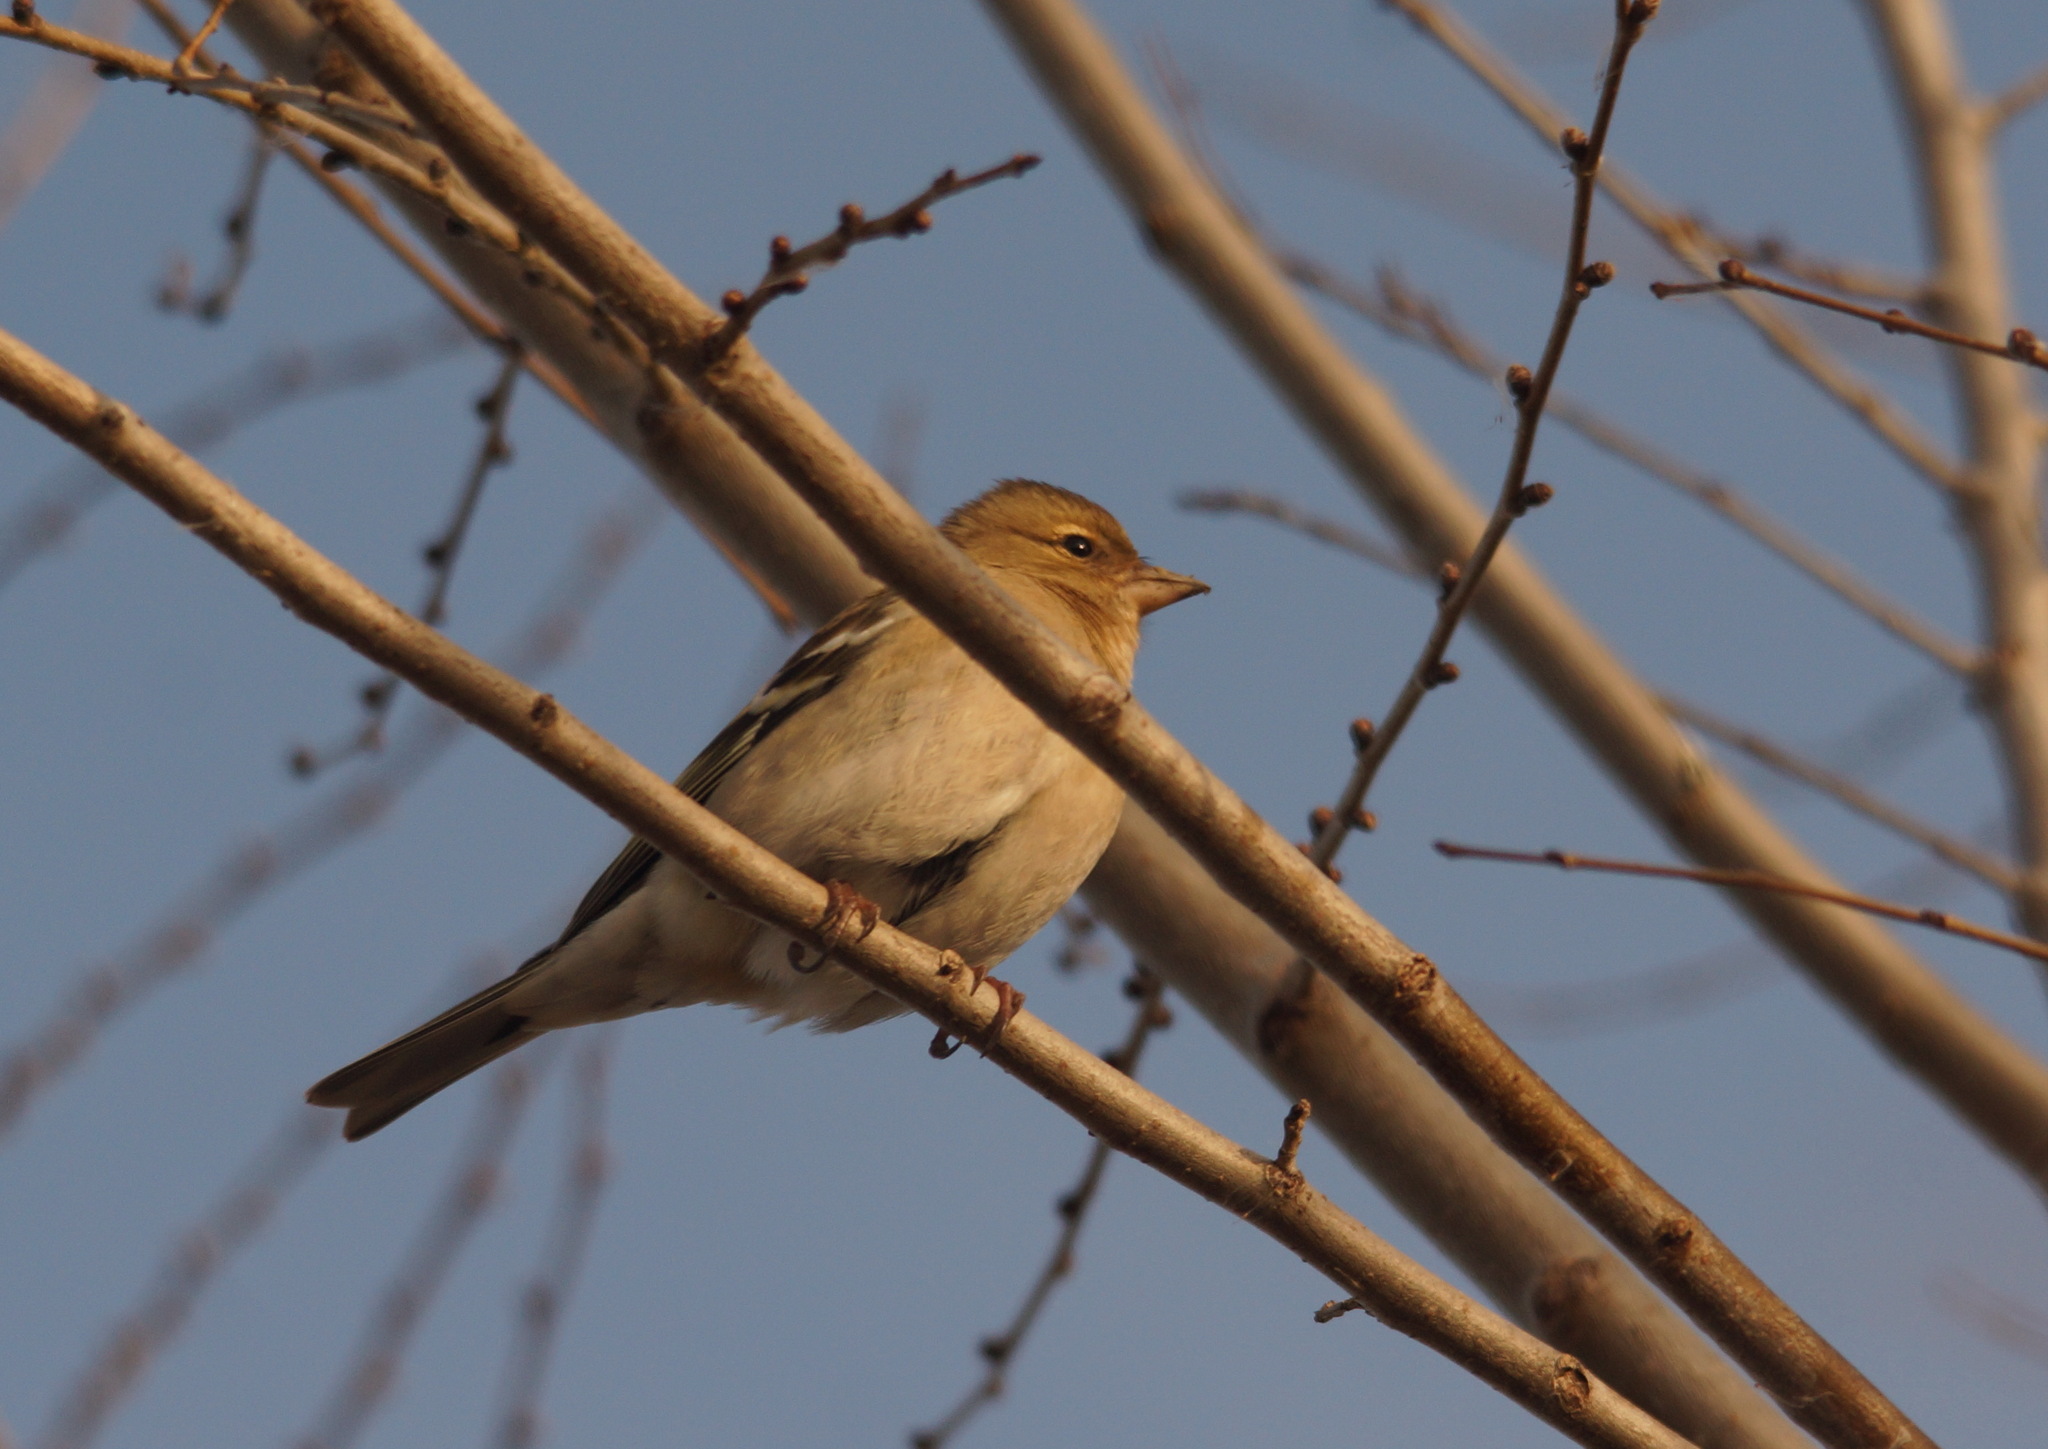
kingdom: Animalia
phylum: Chordata
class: Aves
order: Passeriformes
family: Fringillidae
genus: Fringilla
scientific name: Fringilla coelebs
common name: Common chaffinch
